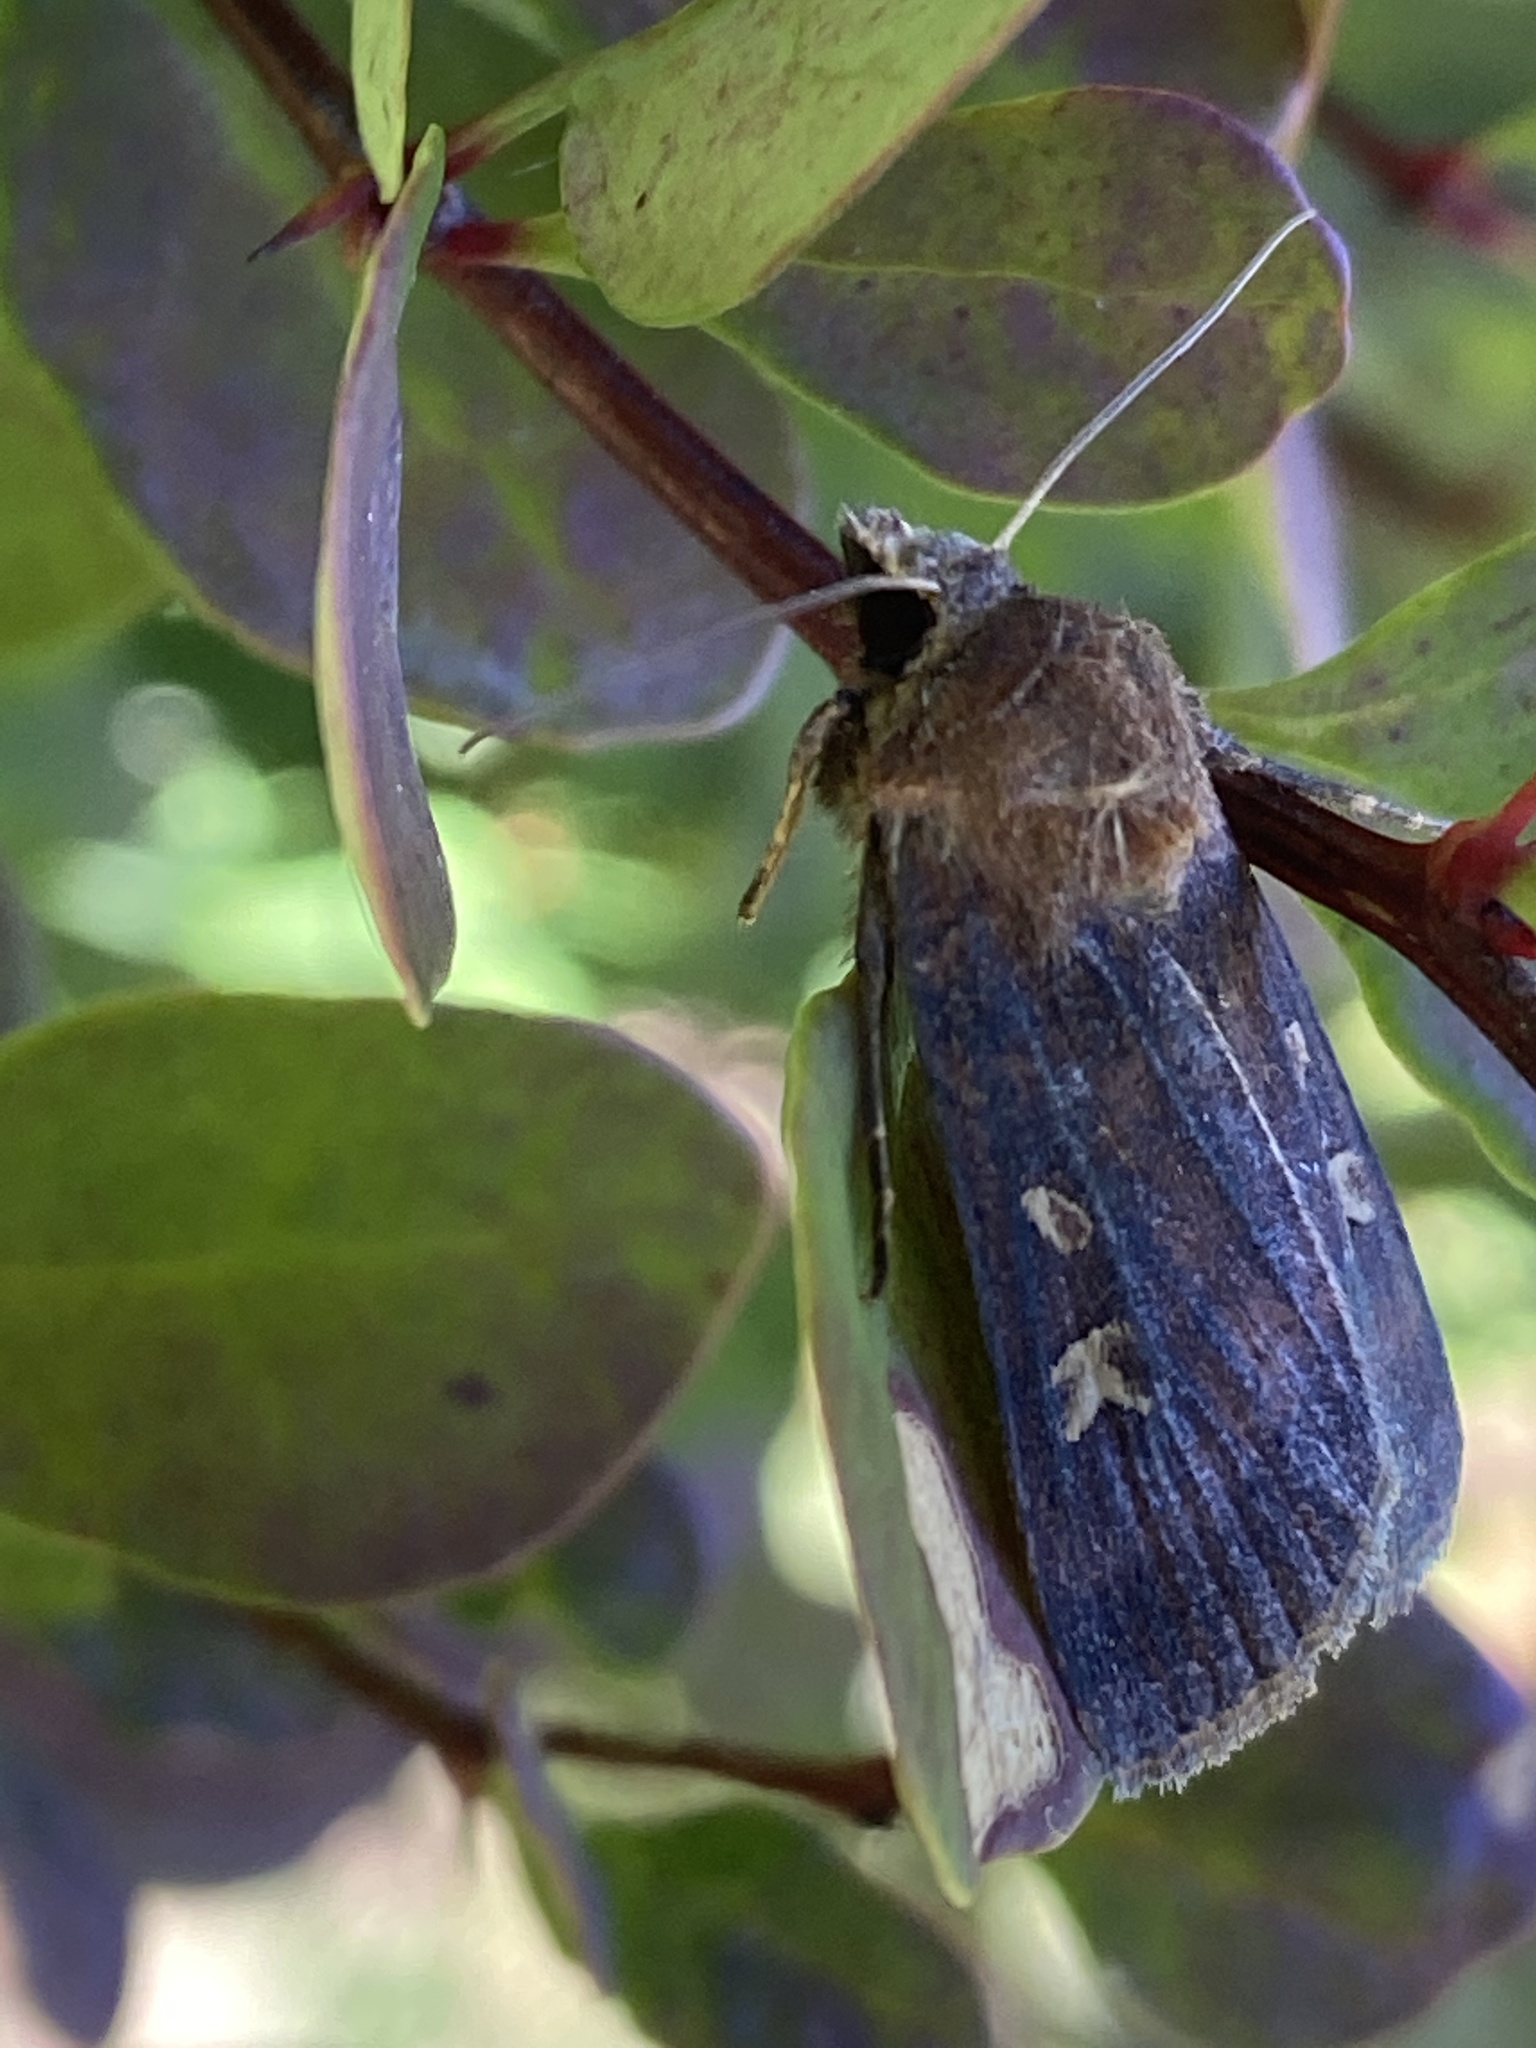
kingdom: Animalia
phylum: Arthropoda
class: Insecta
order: Lepidoptera
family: Noctuidae
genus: Xestia
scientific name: Xestia xanthographa
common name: Square-spot rustic
